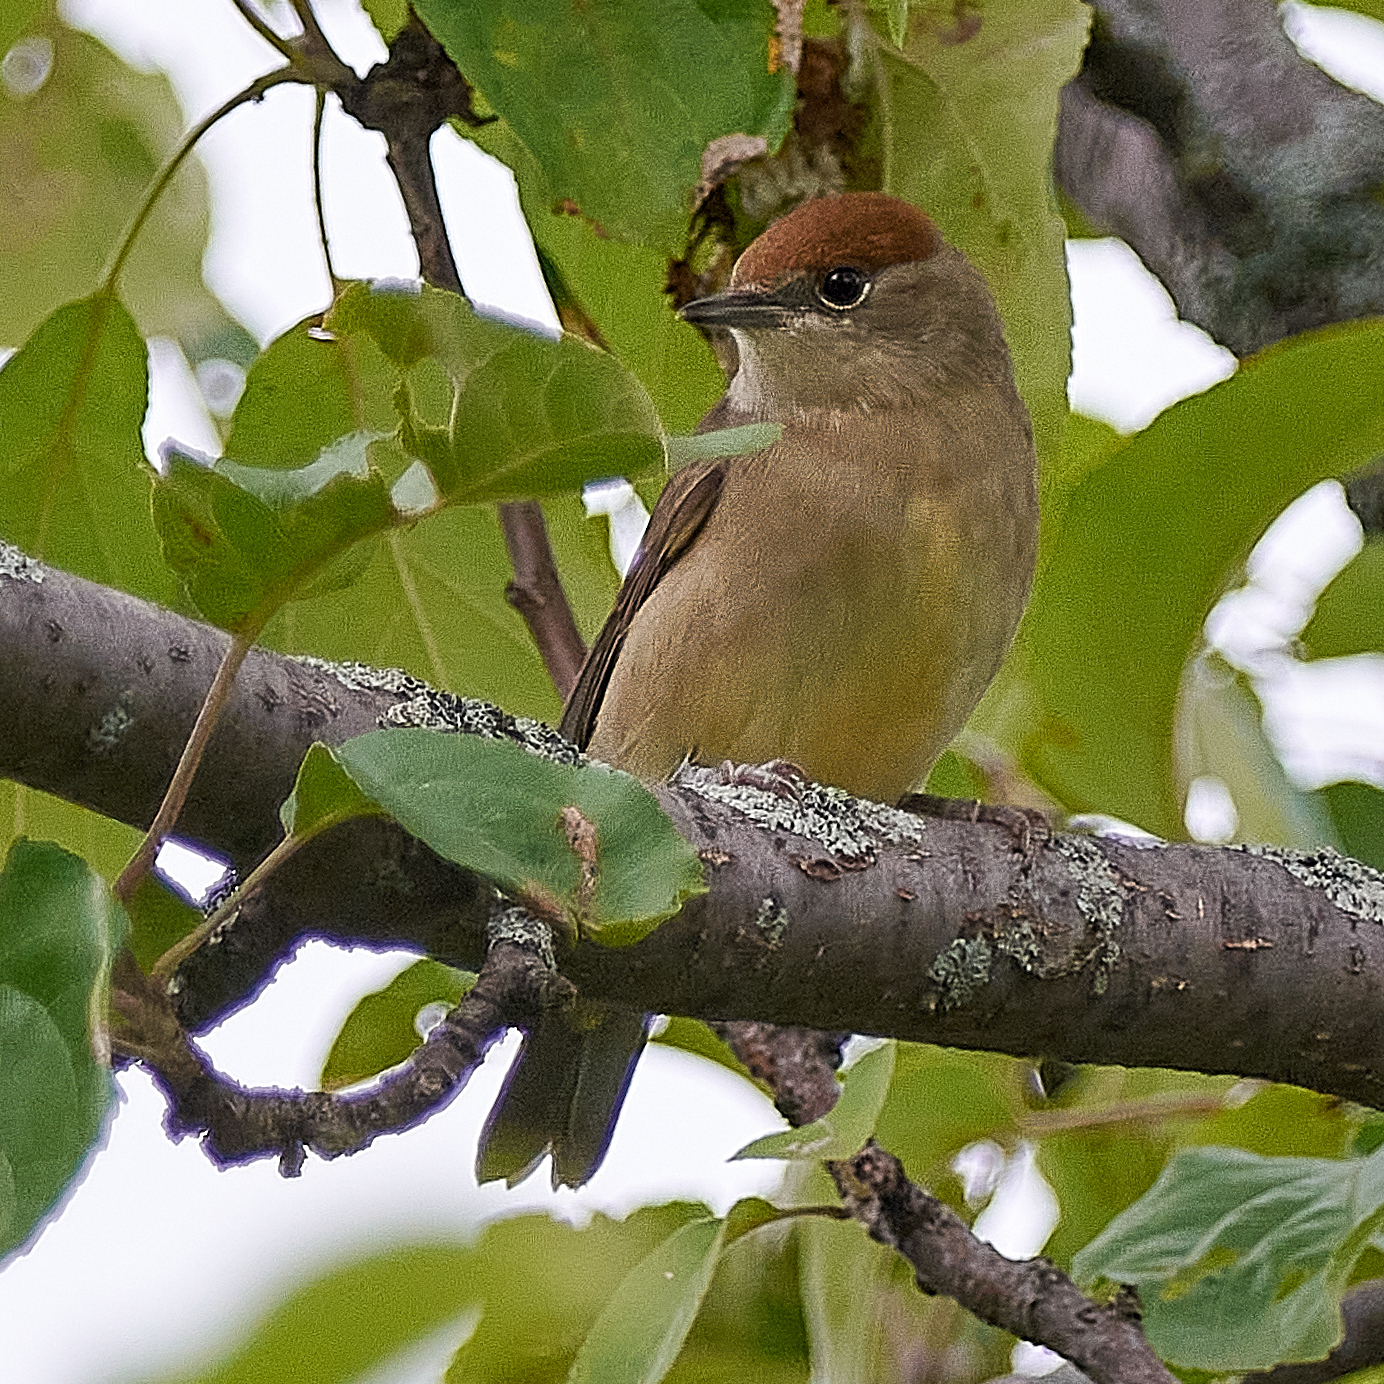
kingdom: Animalia
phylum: Chordata
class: Aves
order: Passeriformes
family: Sylviidae
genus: Sylvia
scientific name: Sylvia atricapilla
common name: Eurasian blackcap
